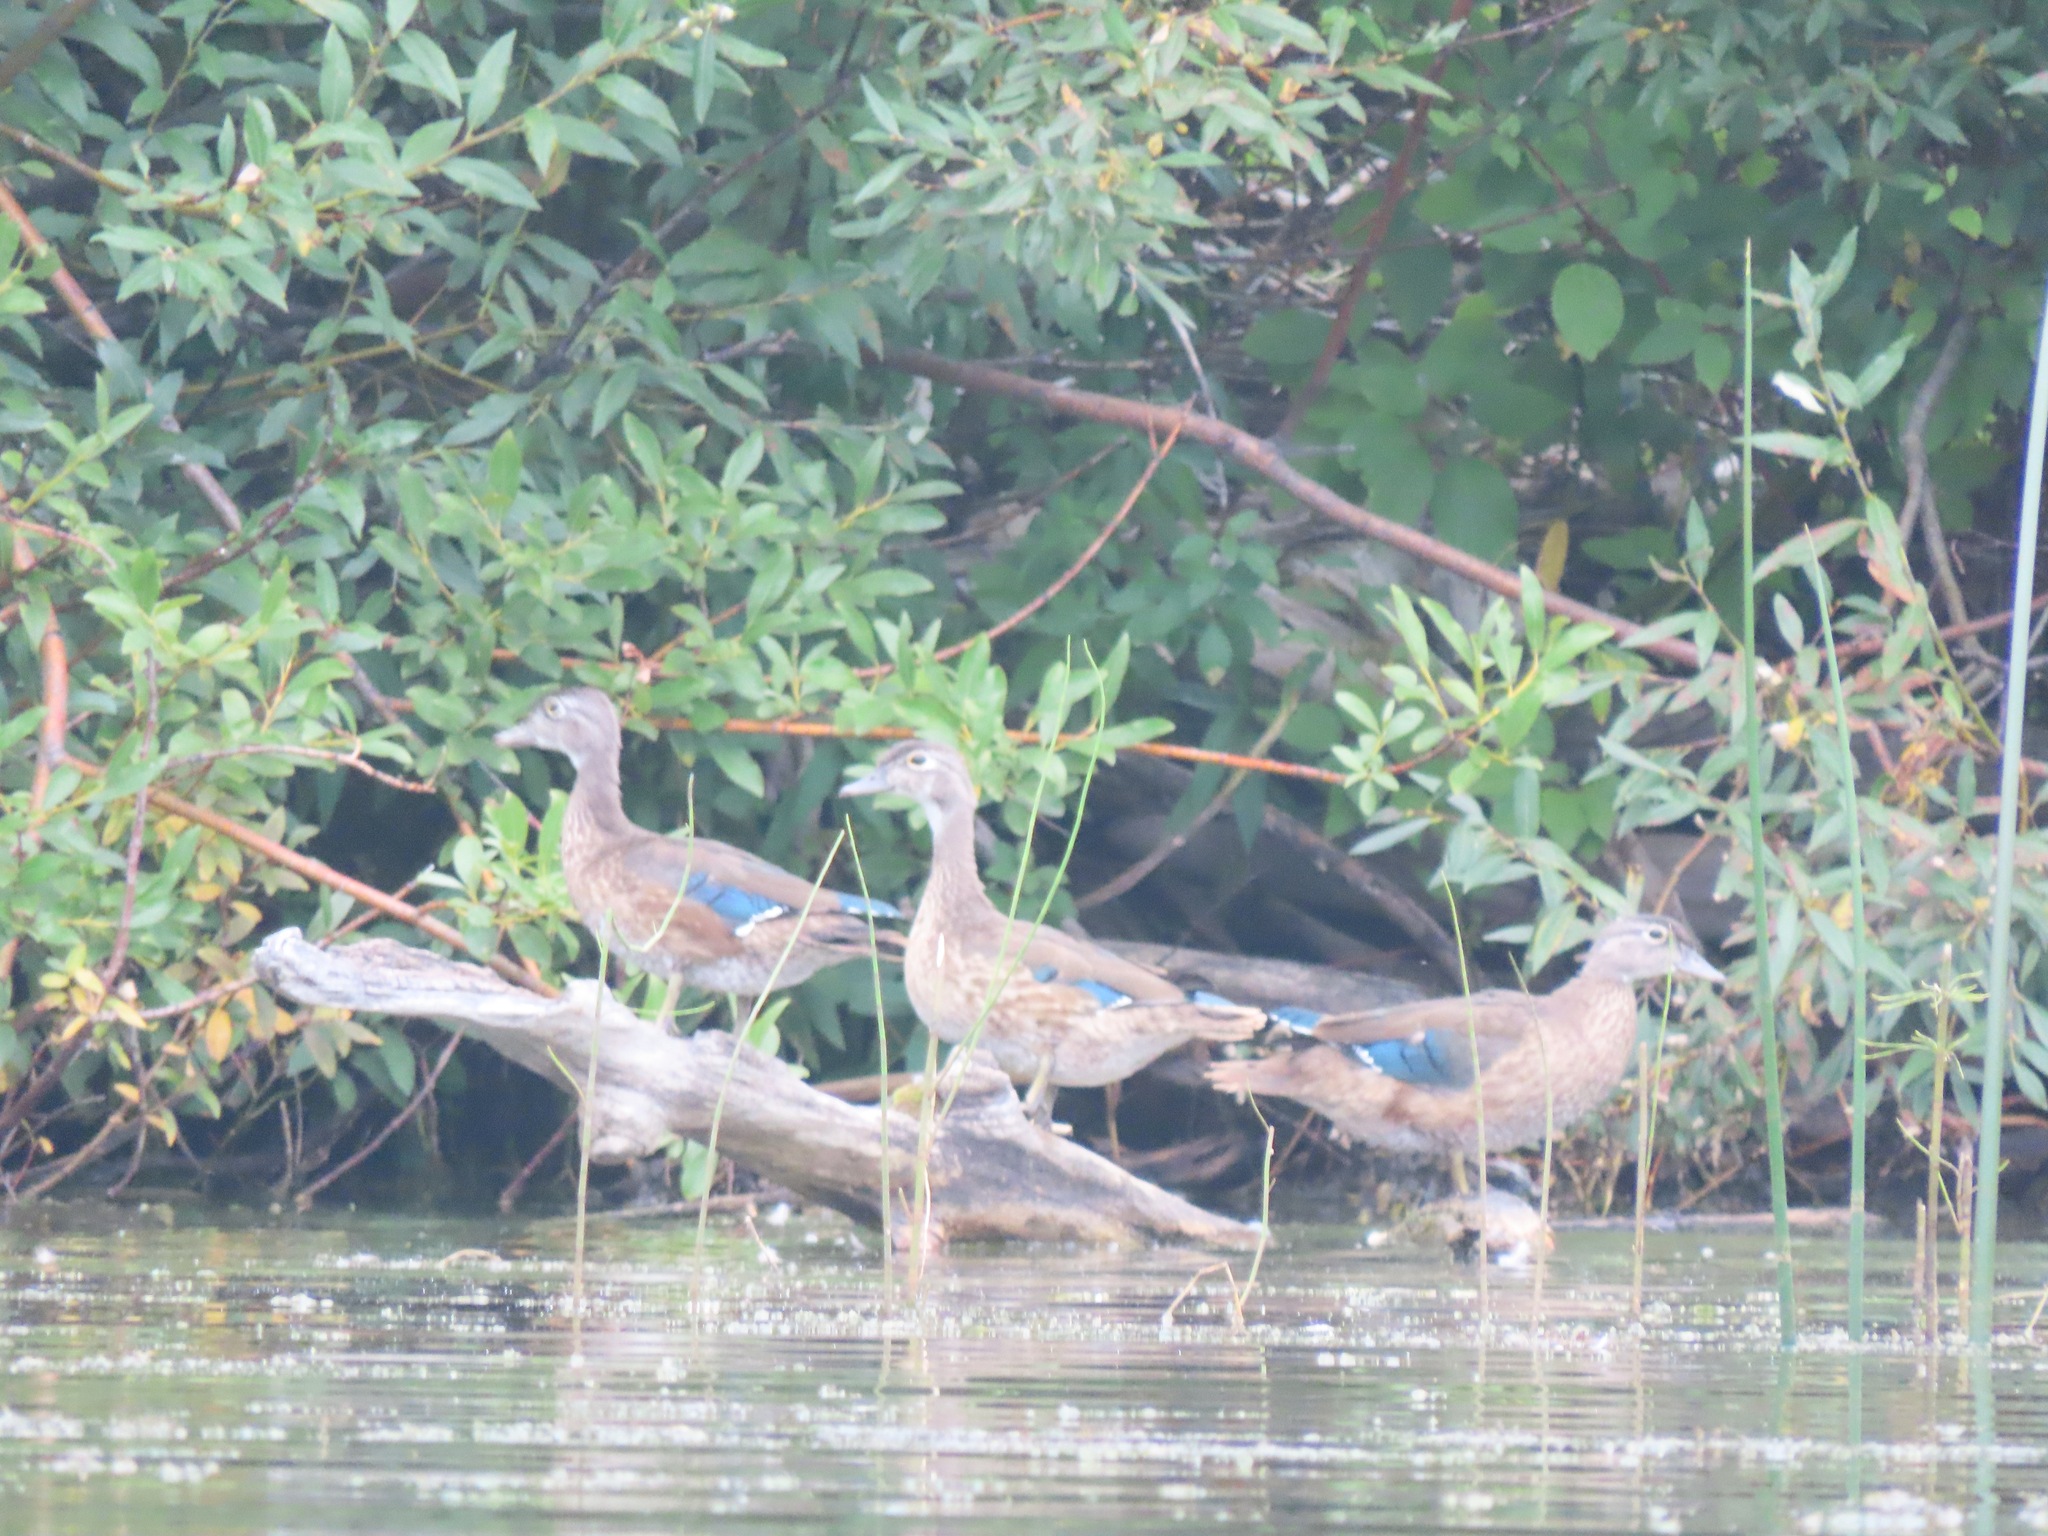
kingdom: Animalia
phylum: Chordata
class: Aves
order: Anseriformes
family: Anatidae
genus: Aix
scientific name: Aix sponsa
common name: Wood duck
